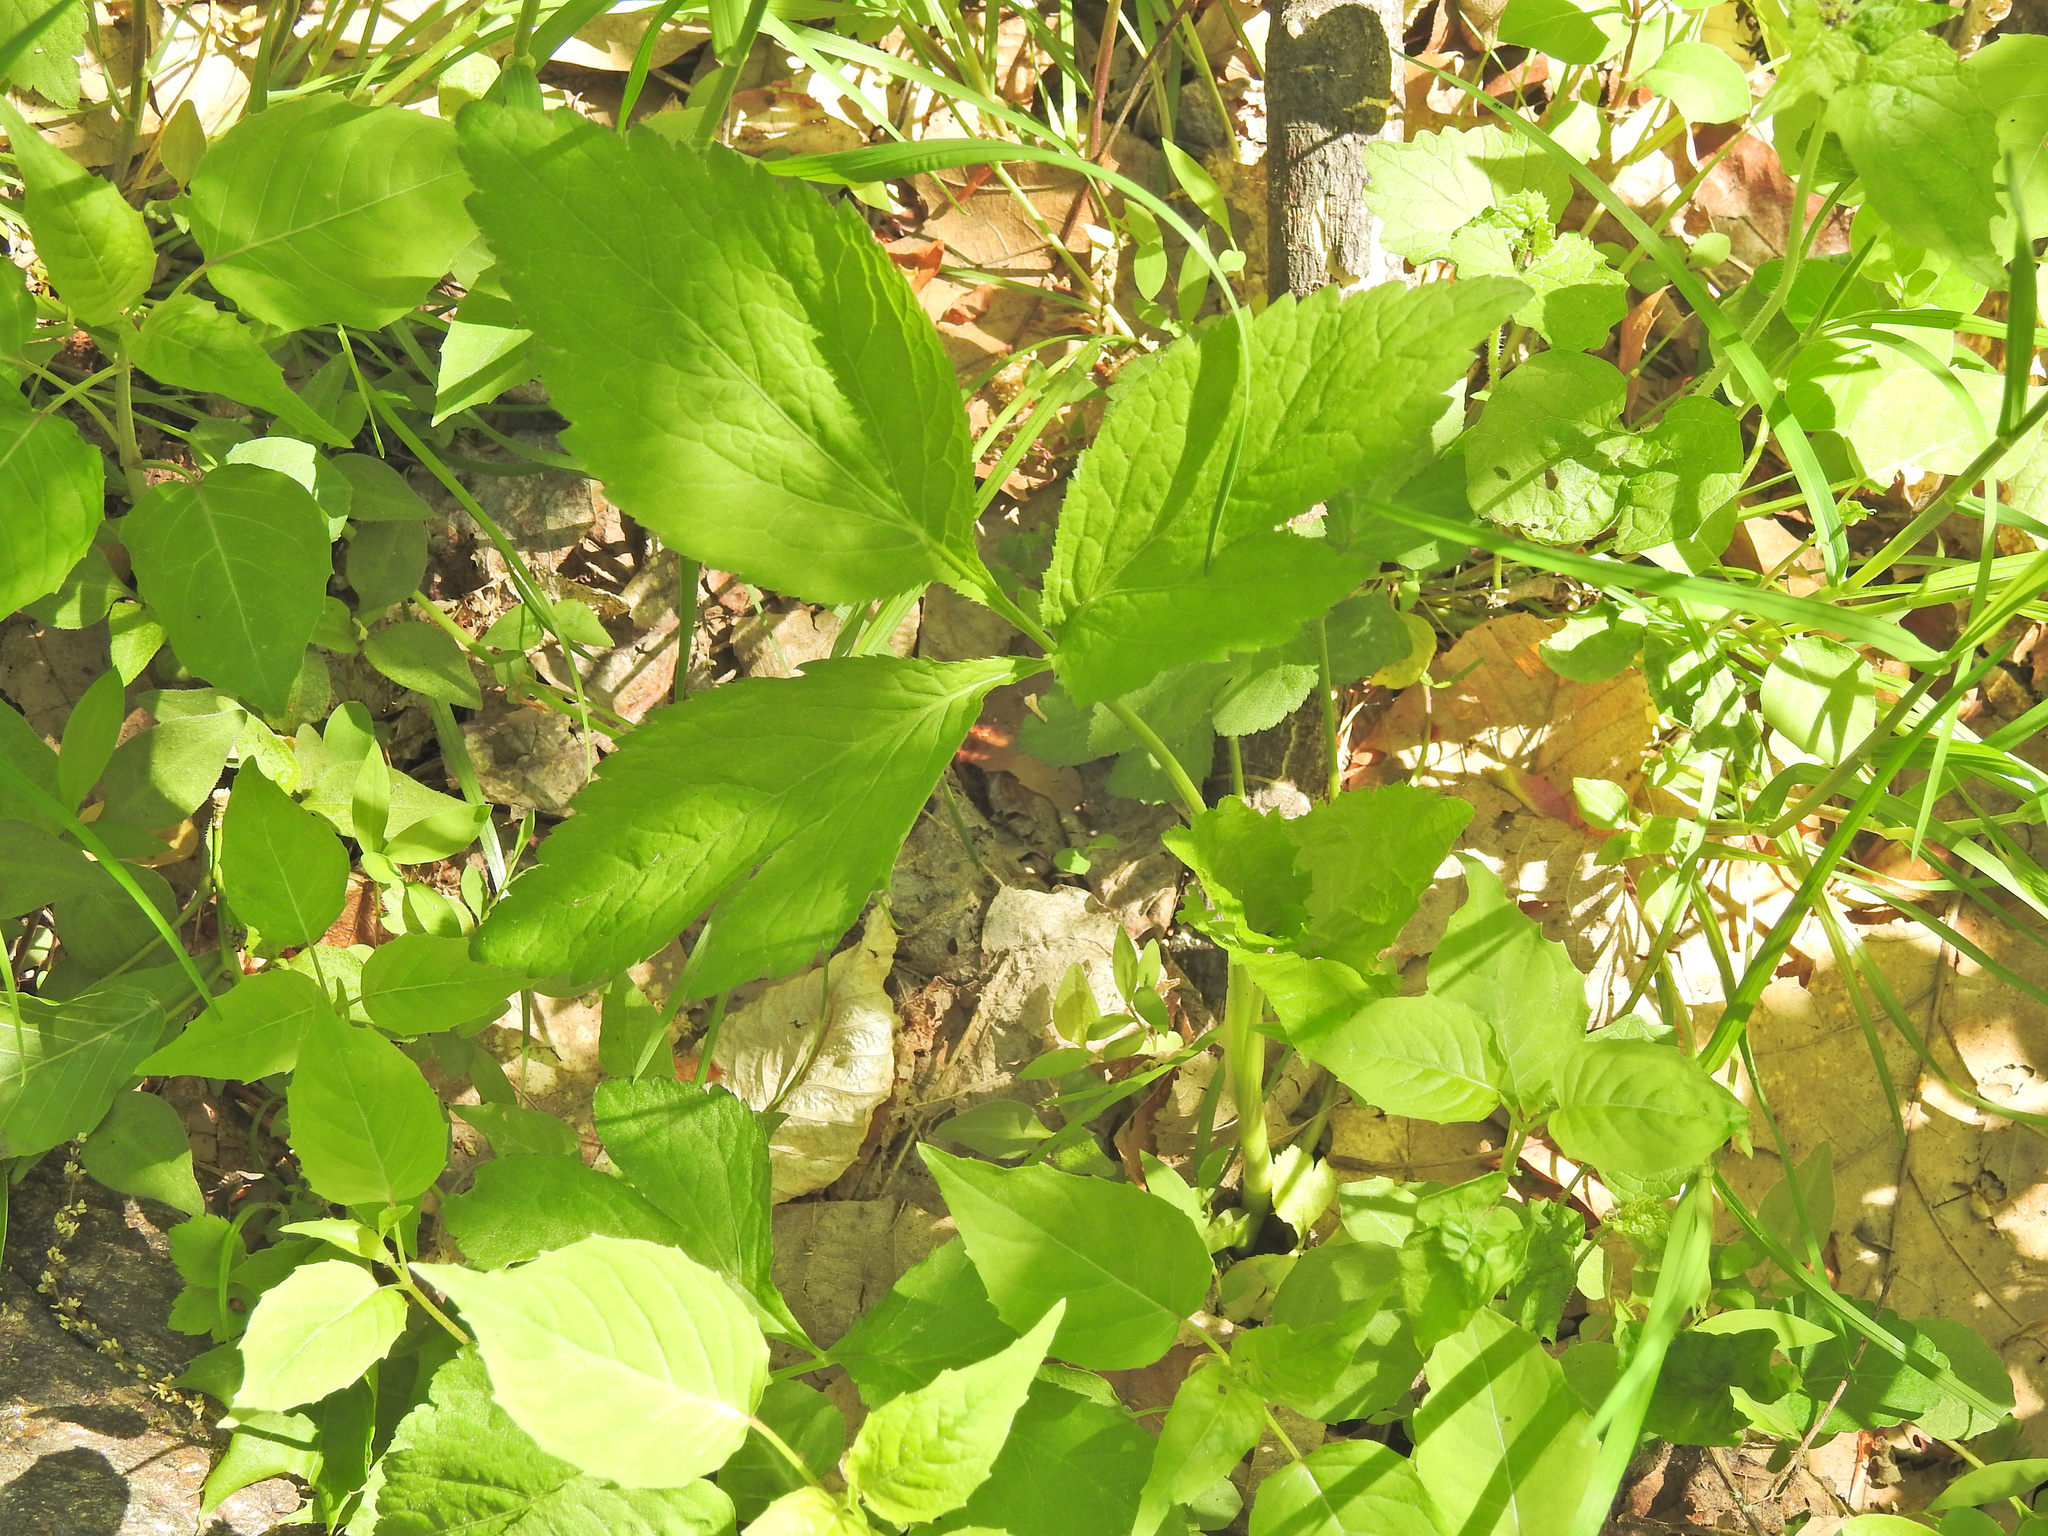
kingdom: Plantae
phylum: Tracheophyta
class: Magnoliopsida
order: Apiales
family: Apiaceae
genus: Cryptotaenia
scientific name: Cryptotaenia canadensis
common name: Honewort
